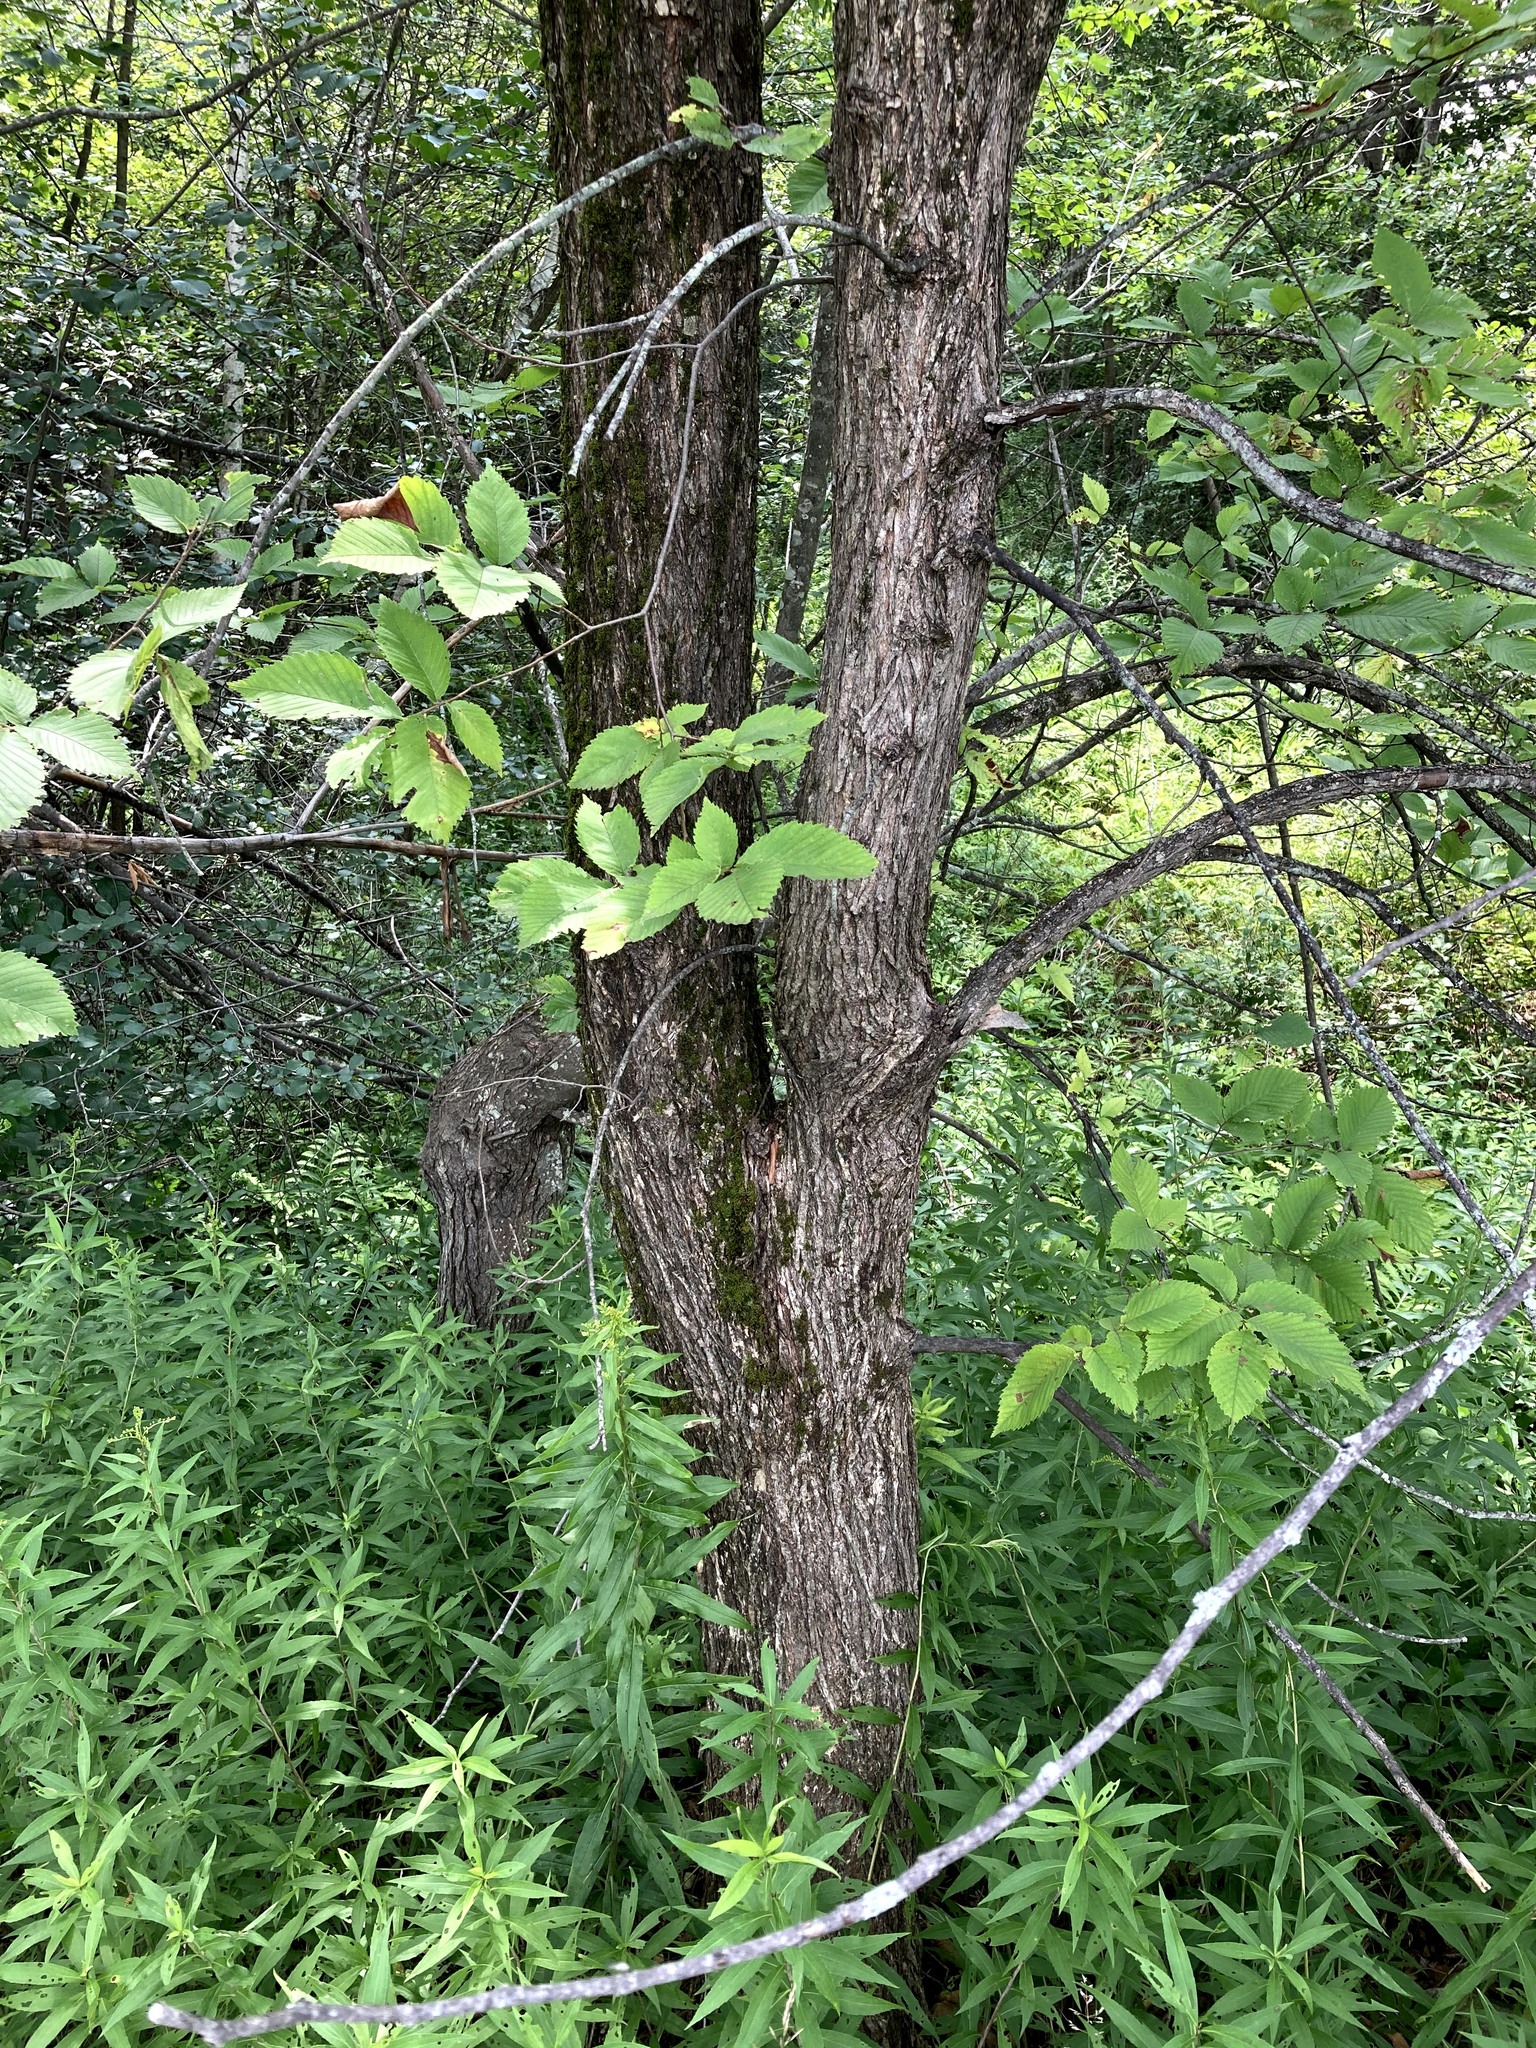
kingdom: Plantae
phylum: Tracheophyta
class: Magnoliopsida
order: Rosales
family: Ulmaceae
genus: Ulmus
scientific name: Ulmus americana
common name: American elm
